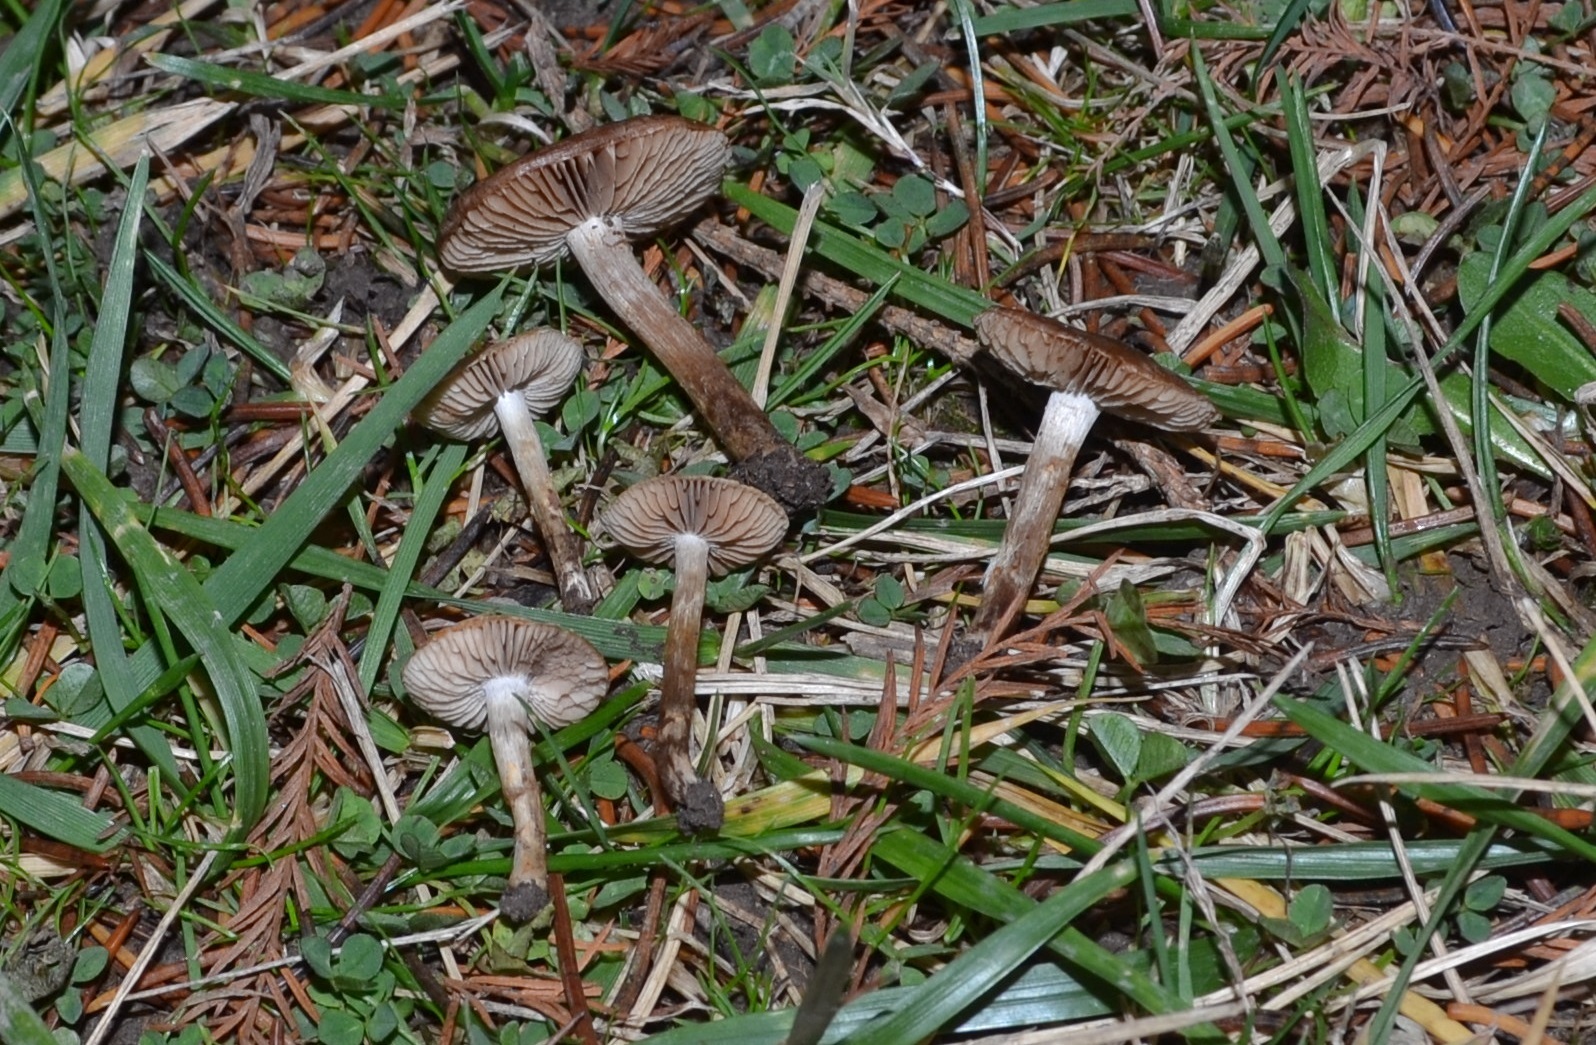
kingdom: Fungi
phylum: Basidiomycota
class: Agaricomycetes
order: Agaricales
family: Hymenogastraceae
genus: Hebeloma
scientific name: Hebeloma excedens
